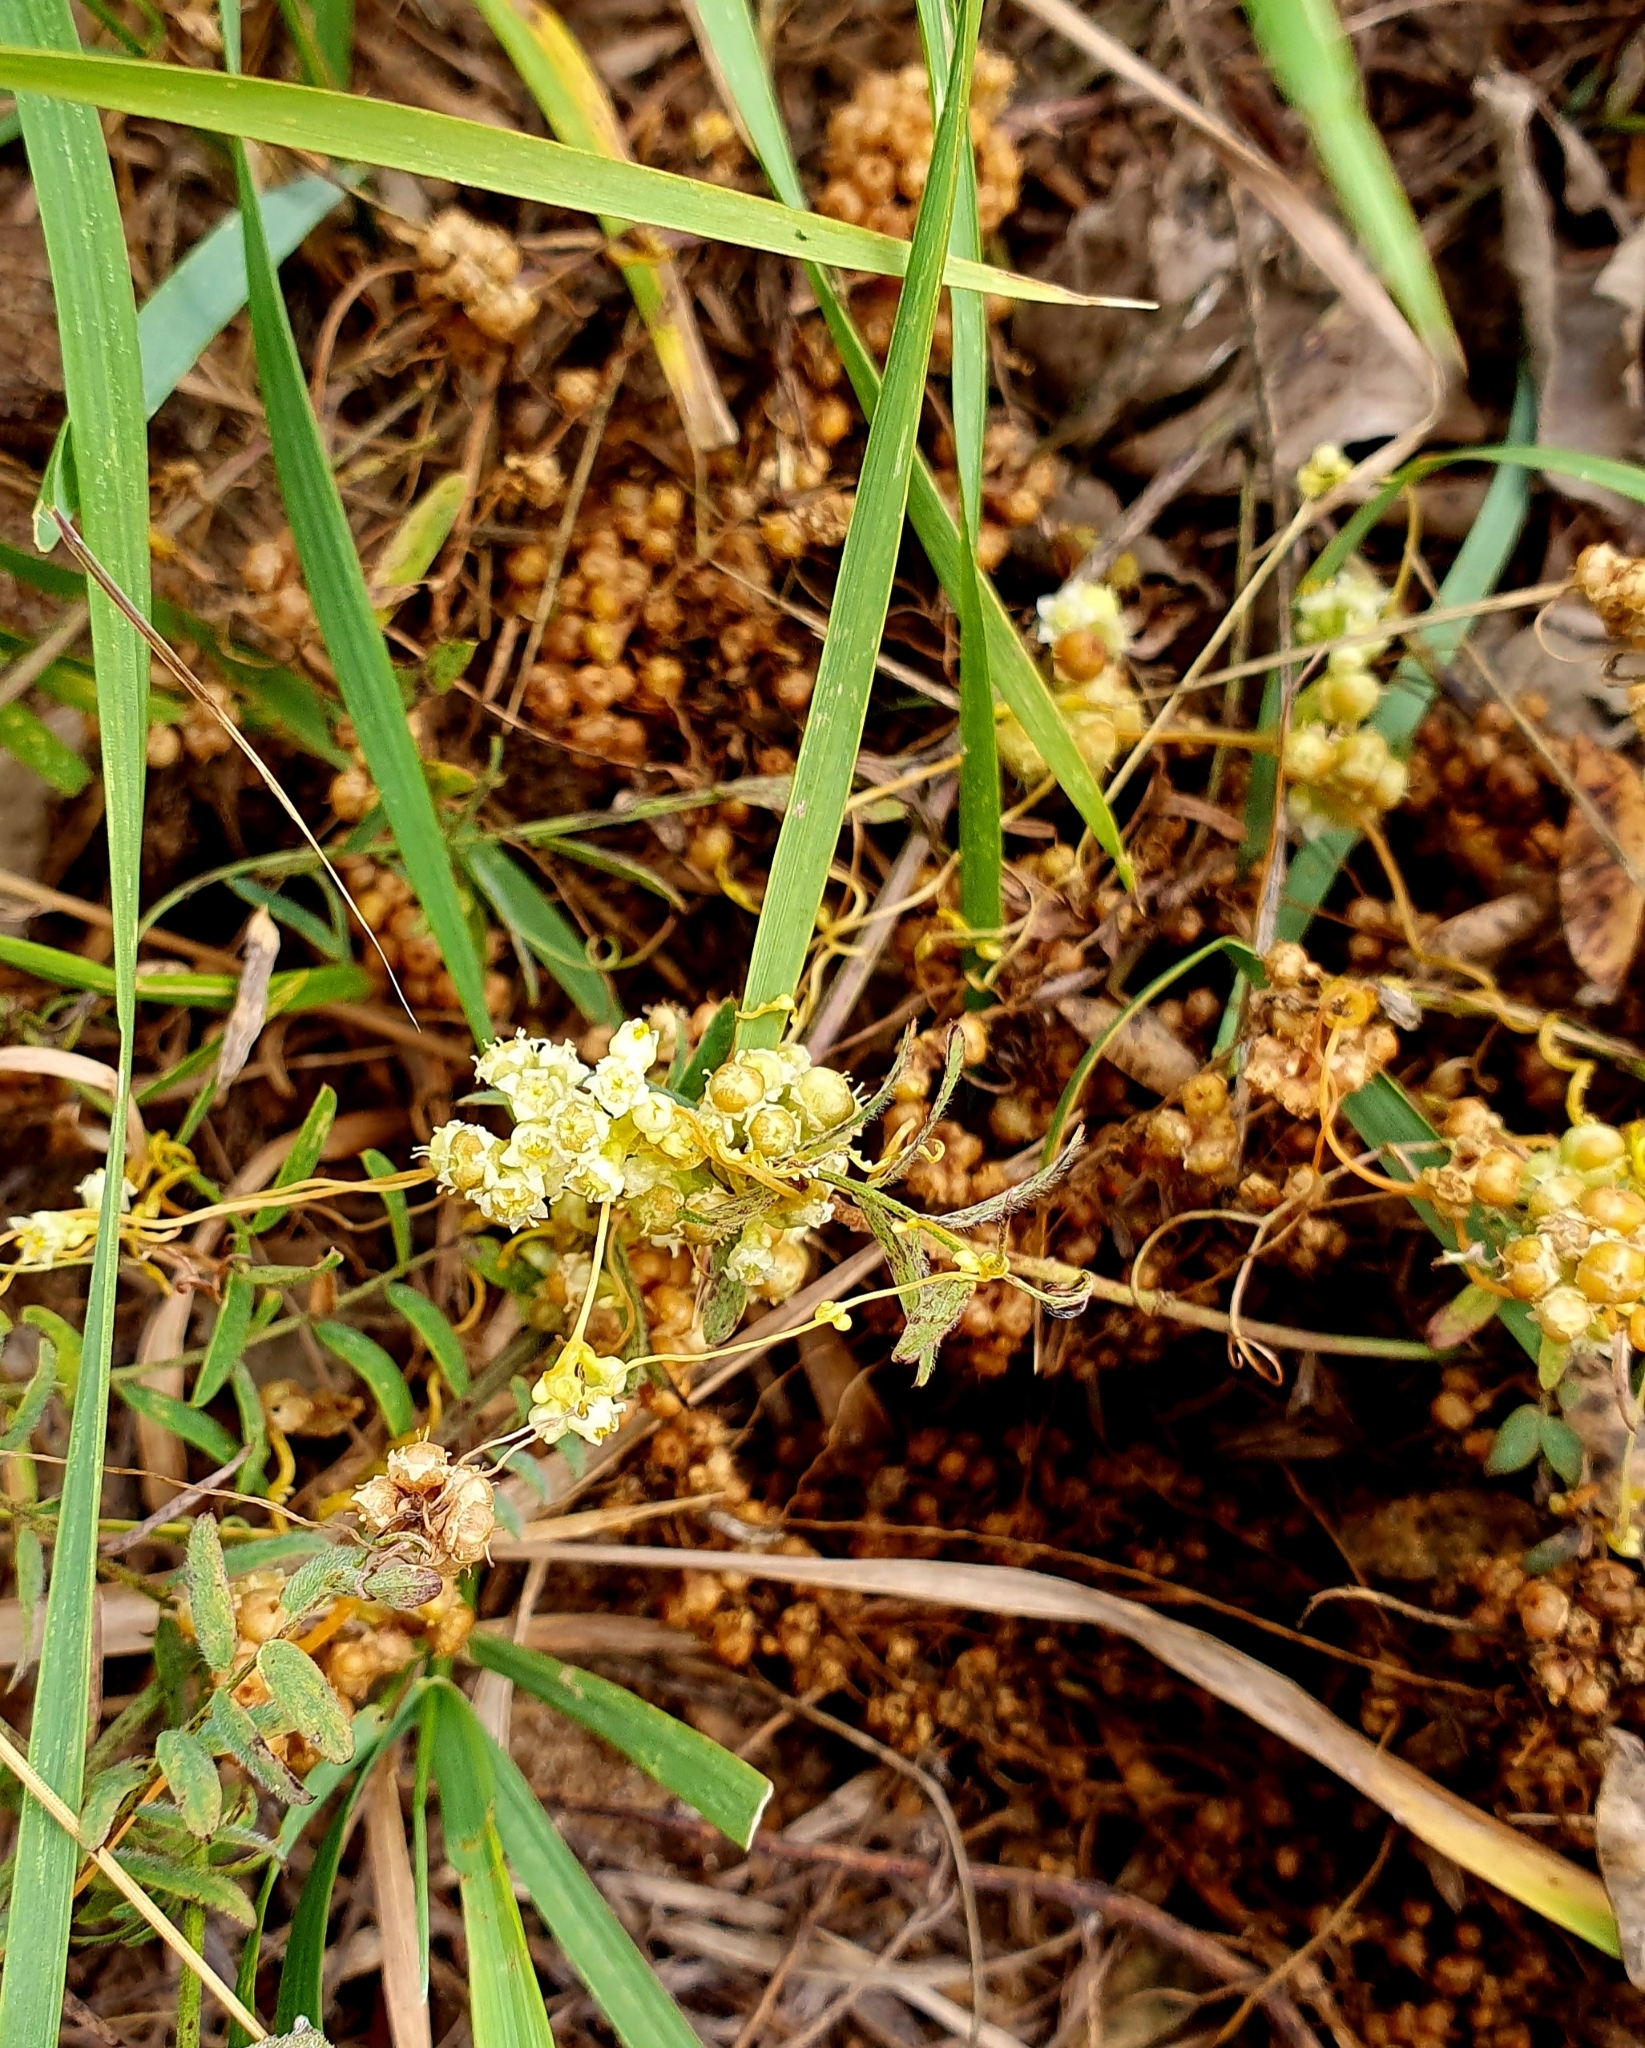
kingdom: Plantae
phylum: Tracheophyta
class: Magnoliopsida
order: Solanales
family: Convolvulaceae
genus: Cuscuta
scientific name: Cuscuta campestris
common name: Yellow dodder
